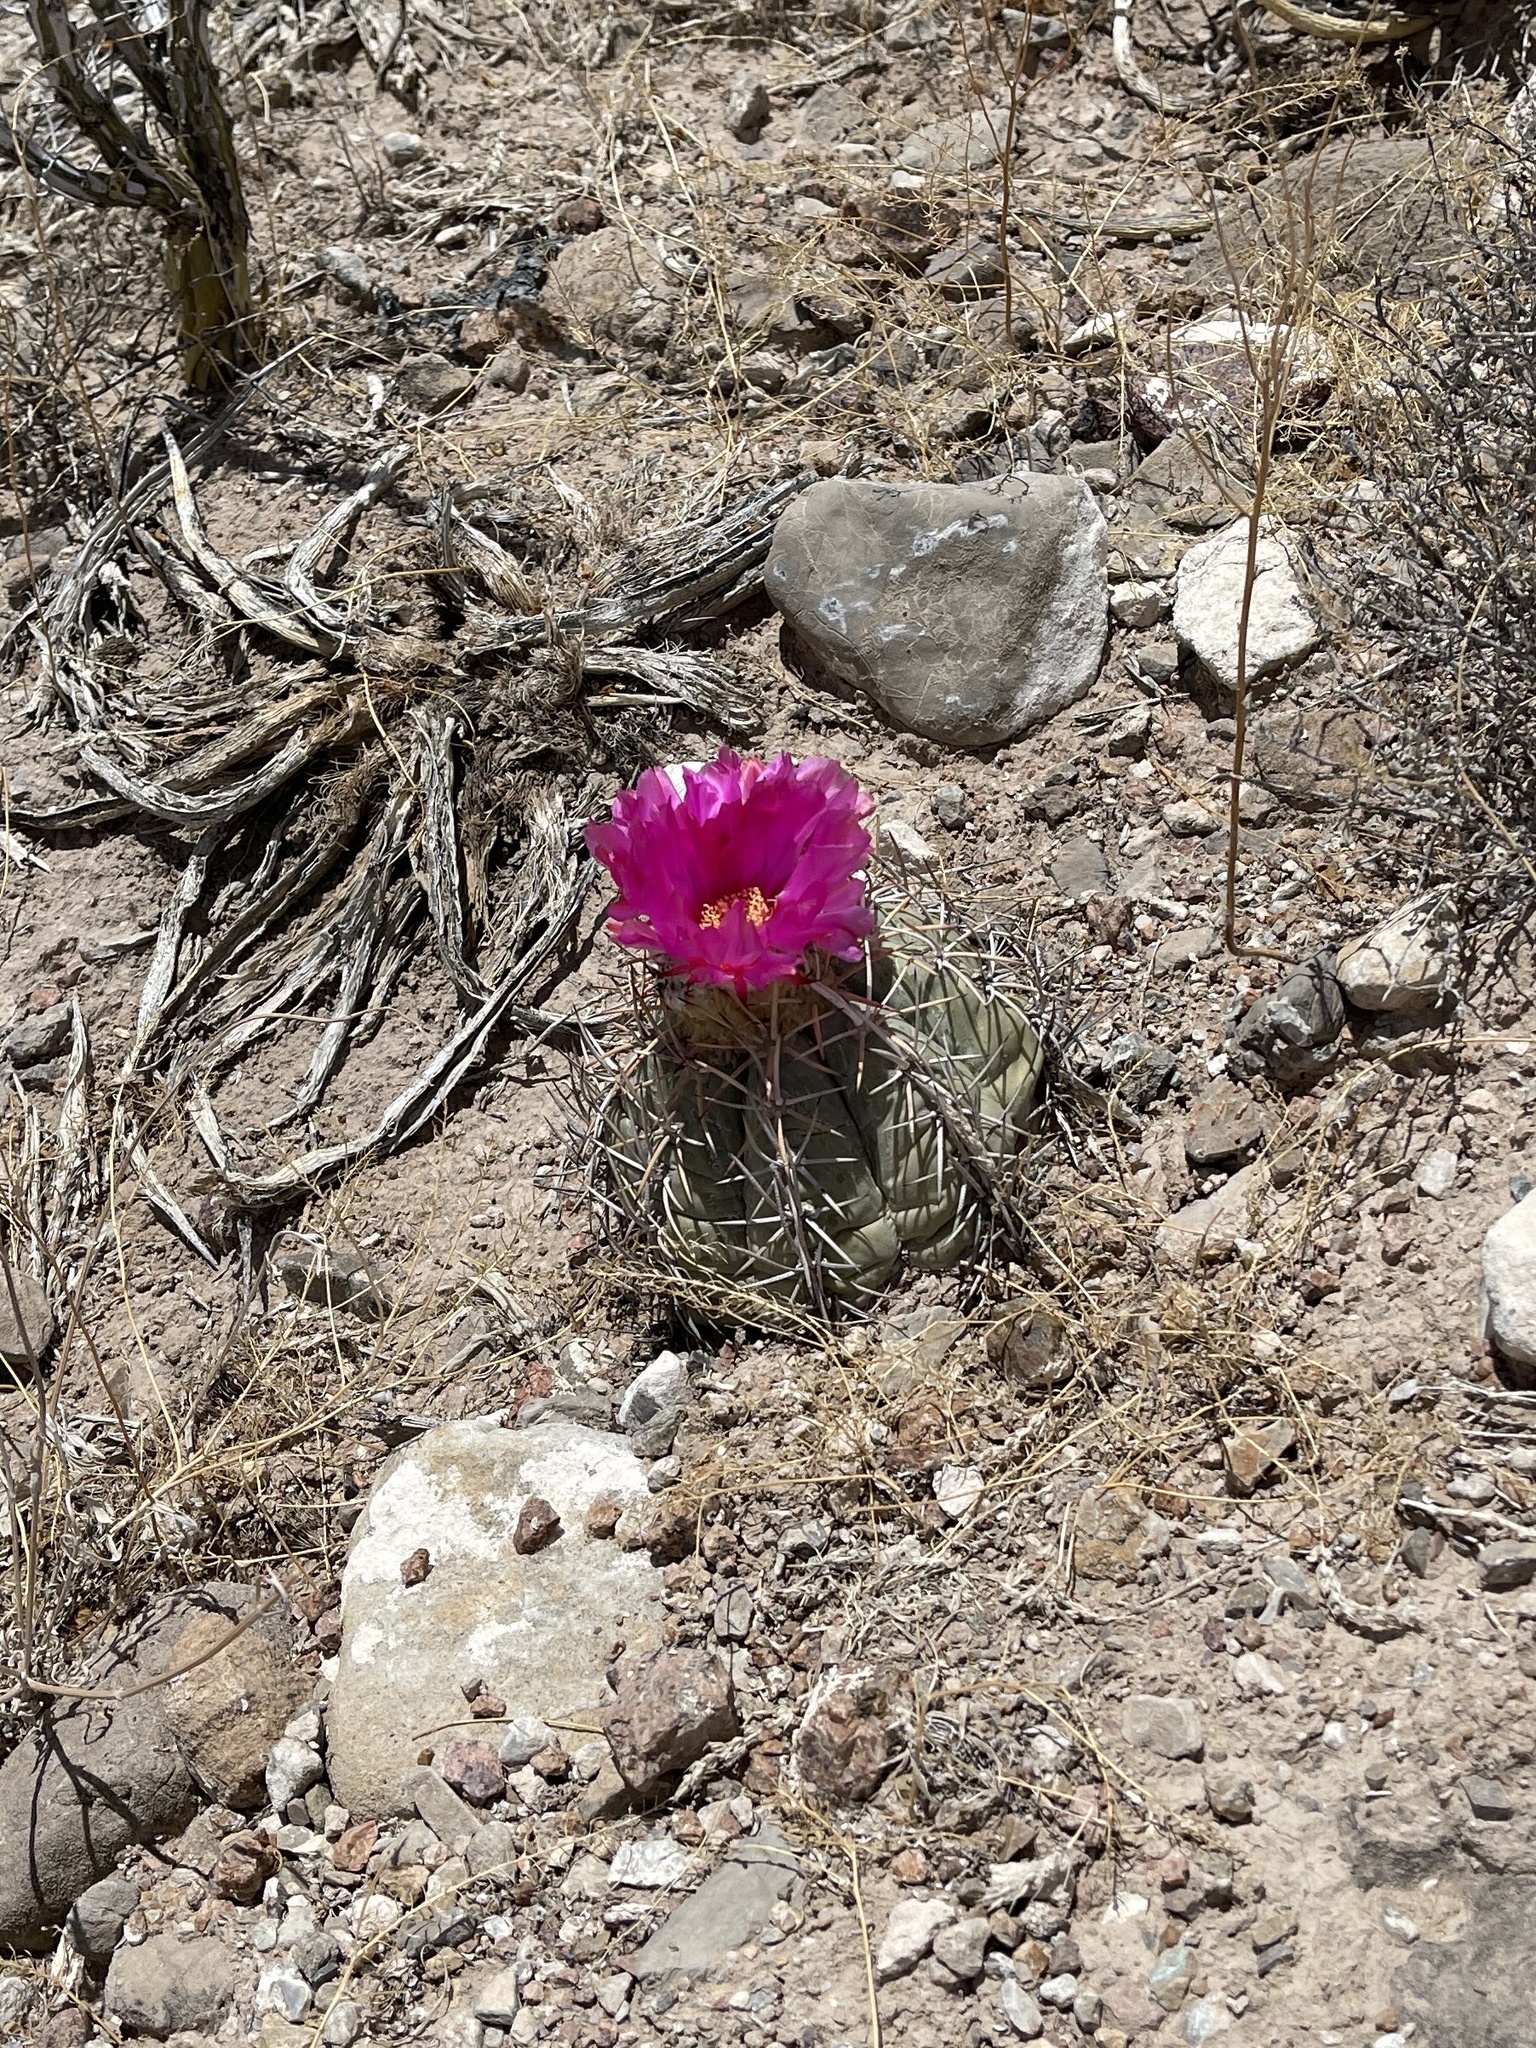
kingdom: Plantae
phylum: Tracheophyta
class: Magnoliopsida
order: Caryophyllales
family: Cactaceae
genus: Echinocactus
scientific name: Echinocactus horizonthalonius
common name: Devilshead
